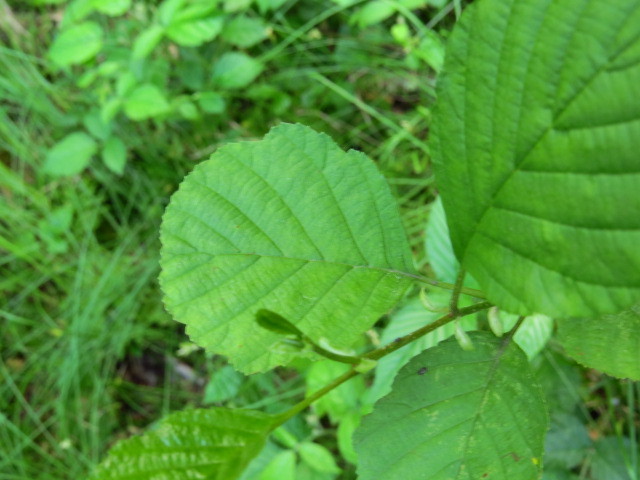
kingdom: Plantae
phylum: Tracheophyta
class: Magnoliopsida
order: Fagales
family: Betulaceae
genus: Alnus
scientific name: Alnus glutinosa
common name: Black alder
